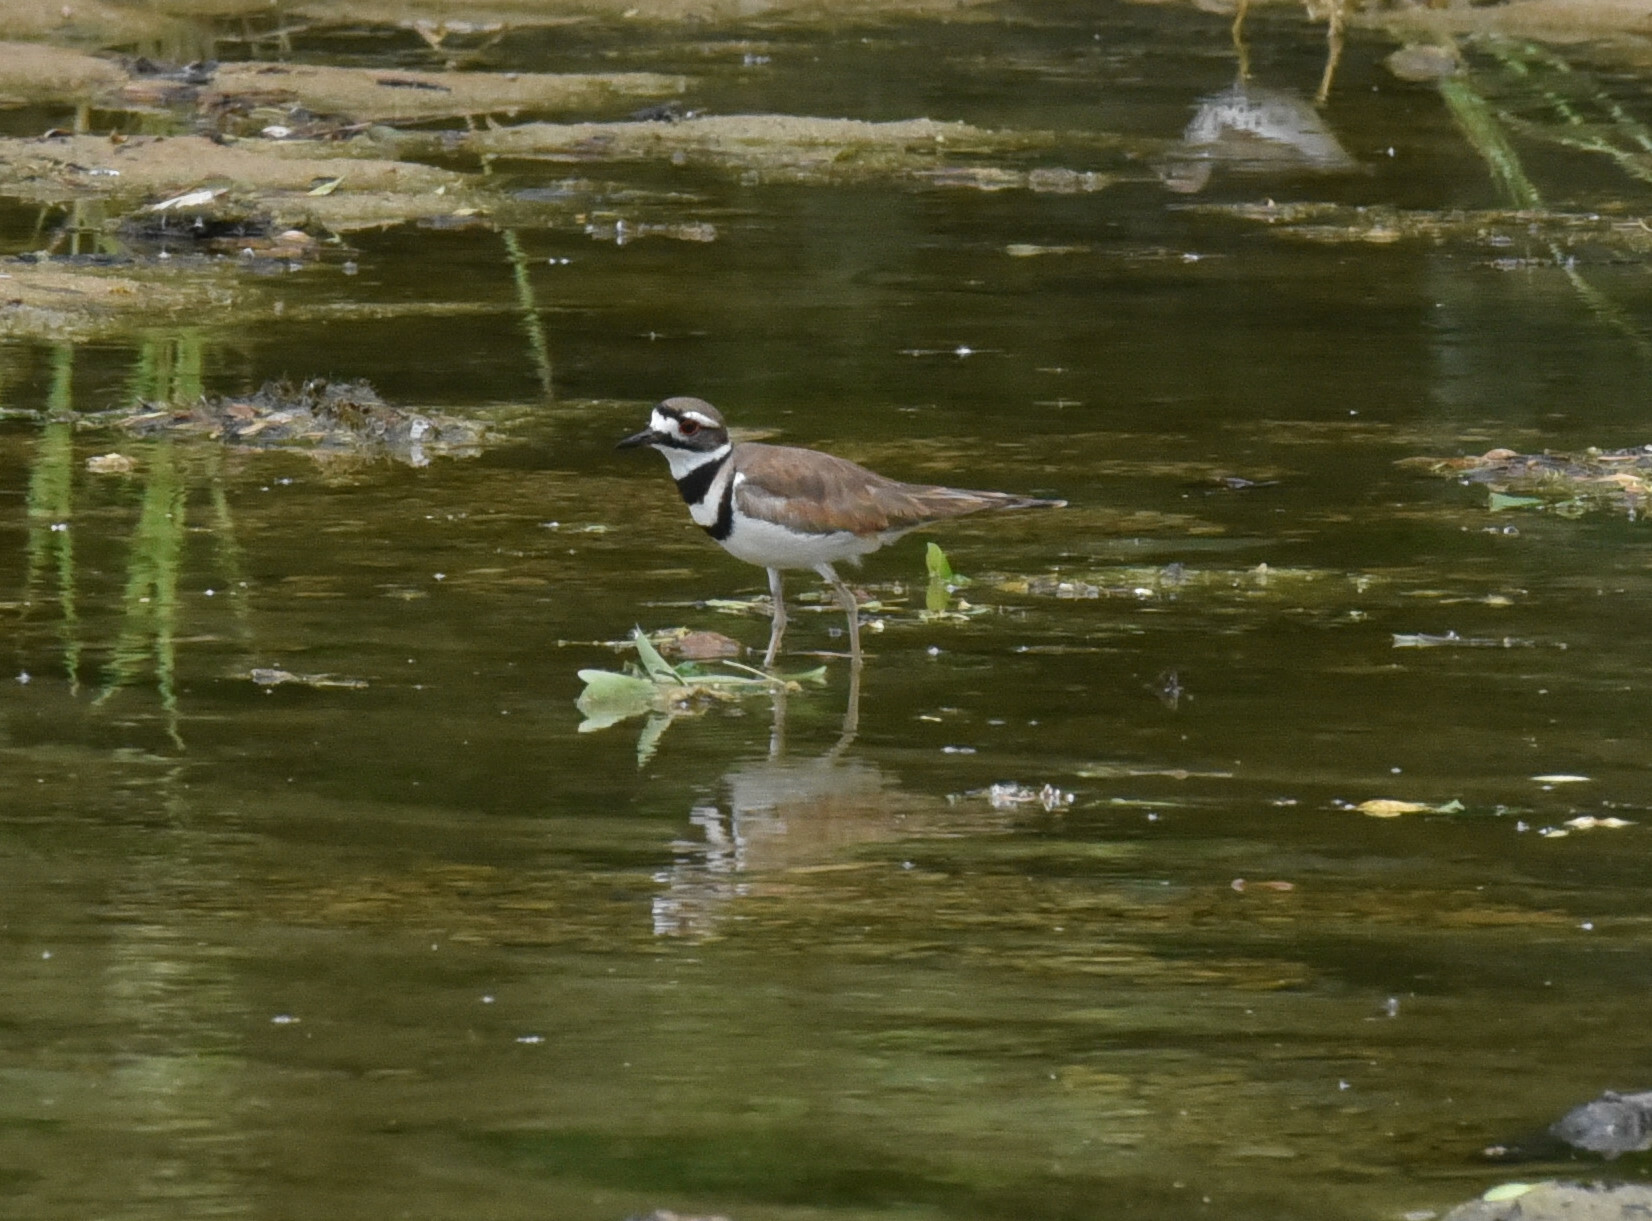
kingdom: Animalia
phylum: Chordata
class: Aves
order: Charadriiformes
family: Charadriidae
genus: Charadrius
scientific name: Charadrius vociferus
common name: Killdeer
